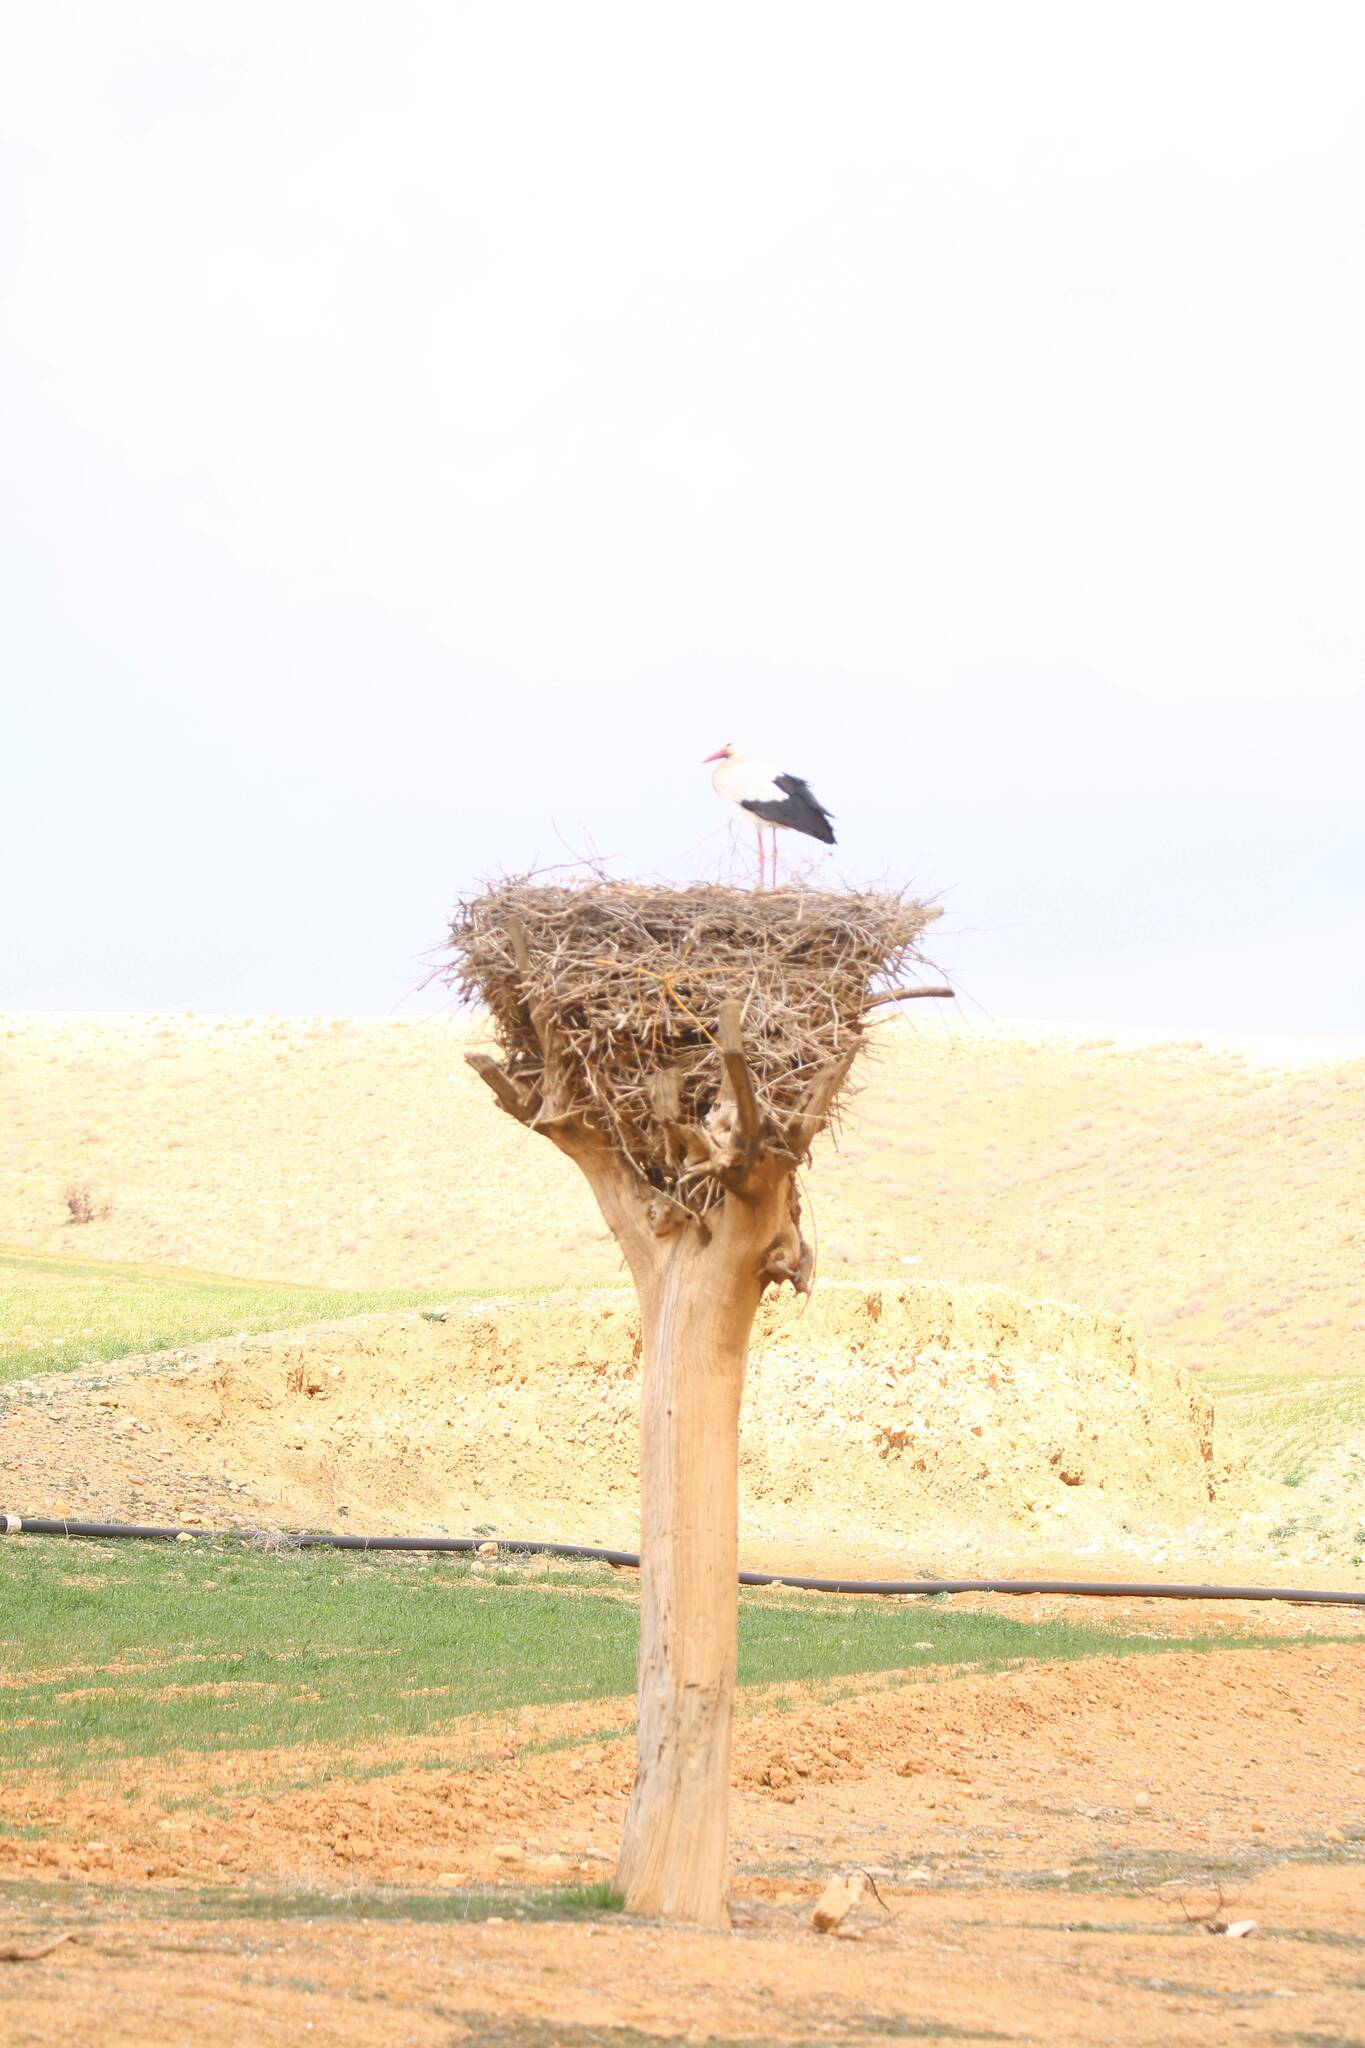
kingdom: Animalia
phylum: Chordata
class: Aves
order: Ciconiiformes
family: Ciconiidae
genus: Ciconia
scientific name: Ciconia ciconia
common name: White stork
